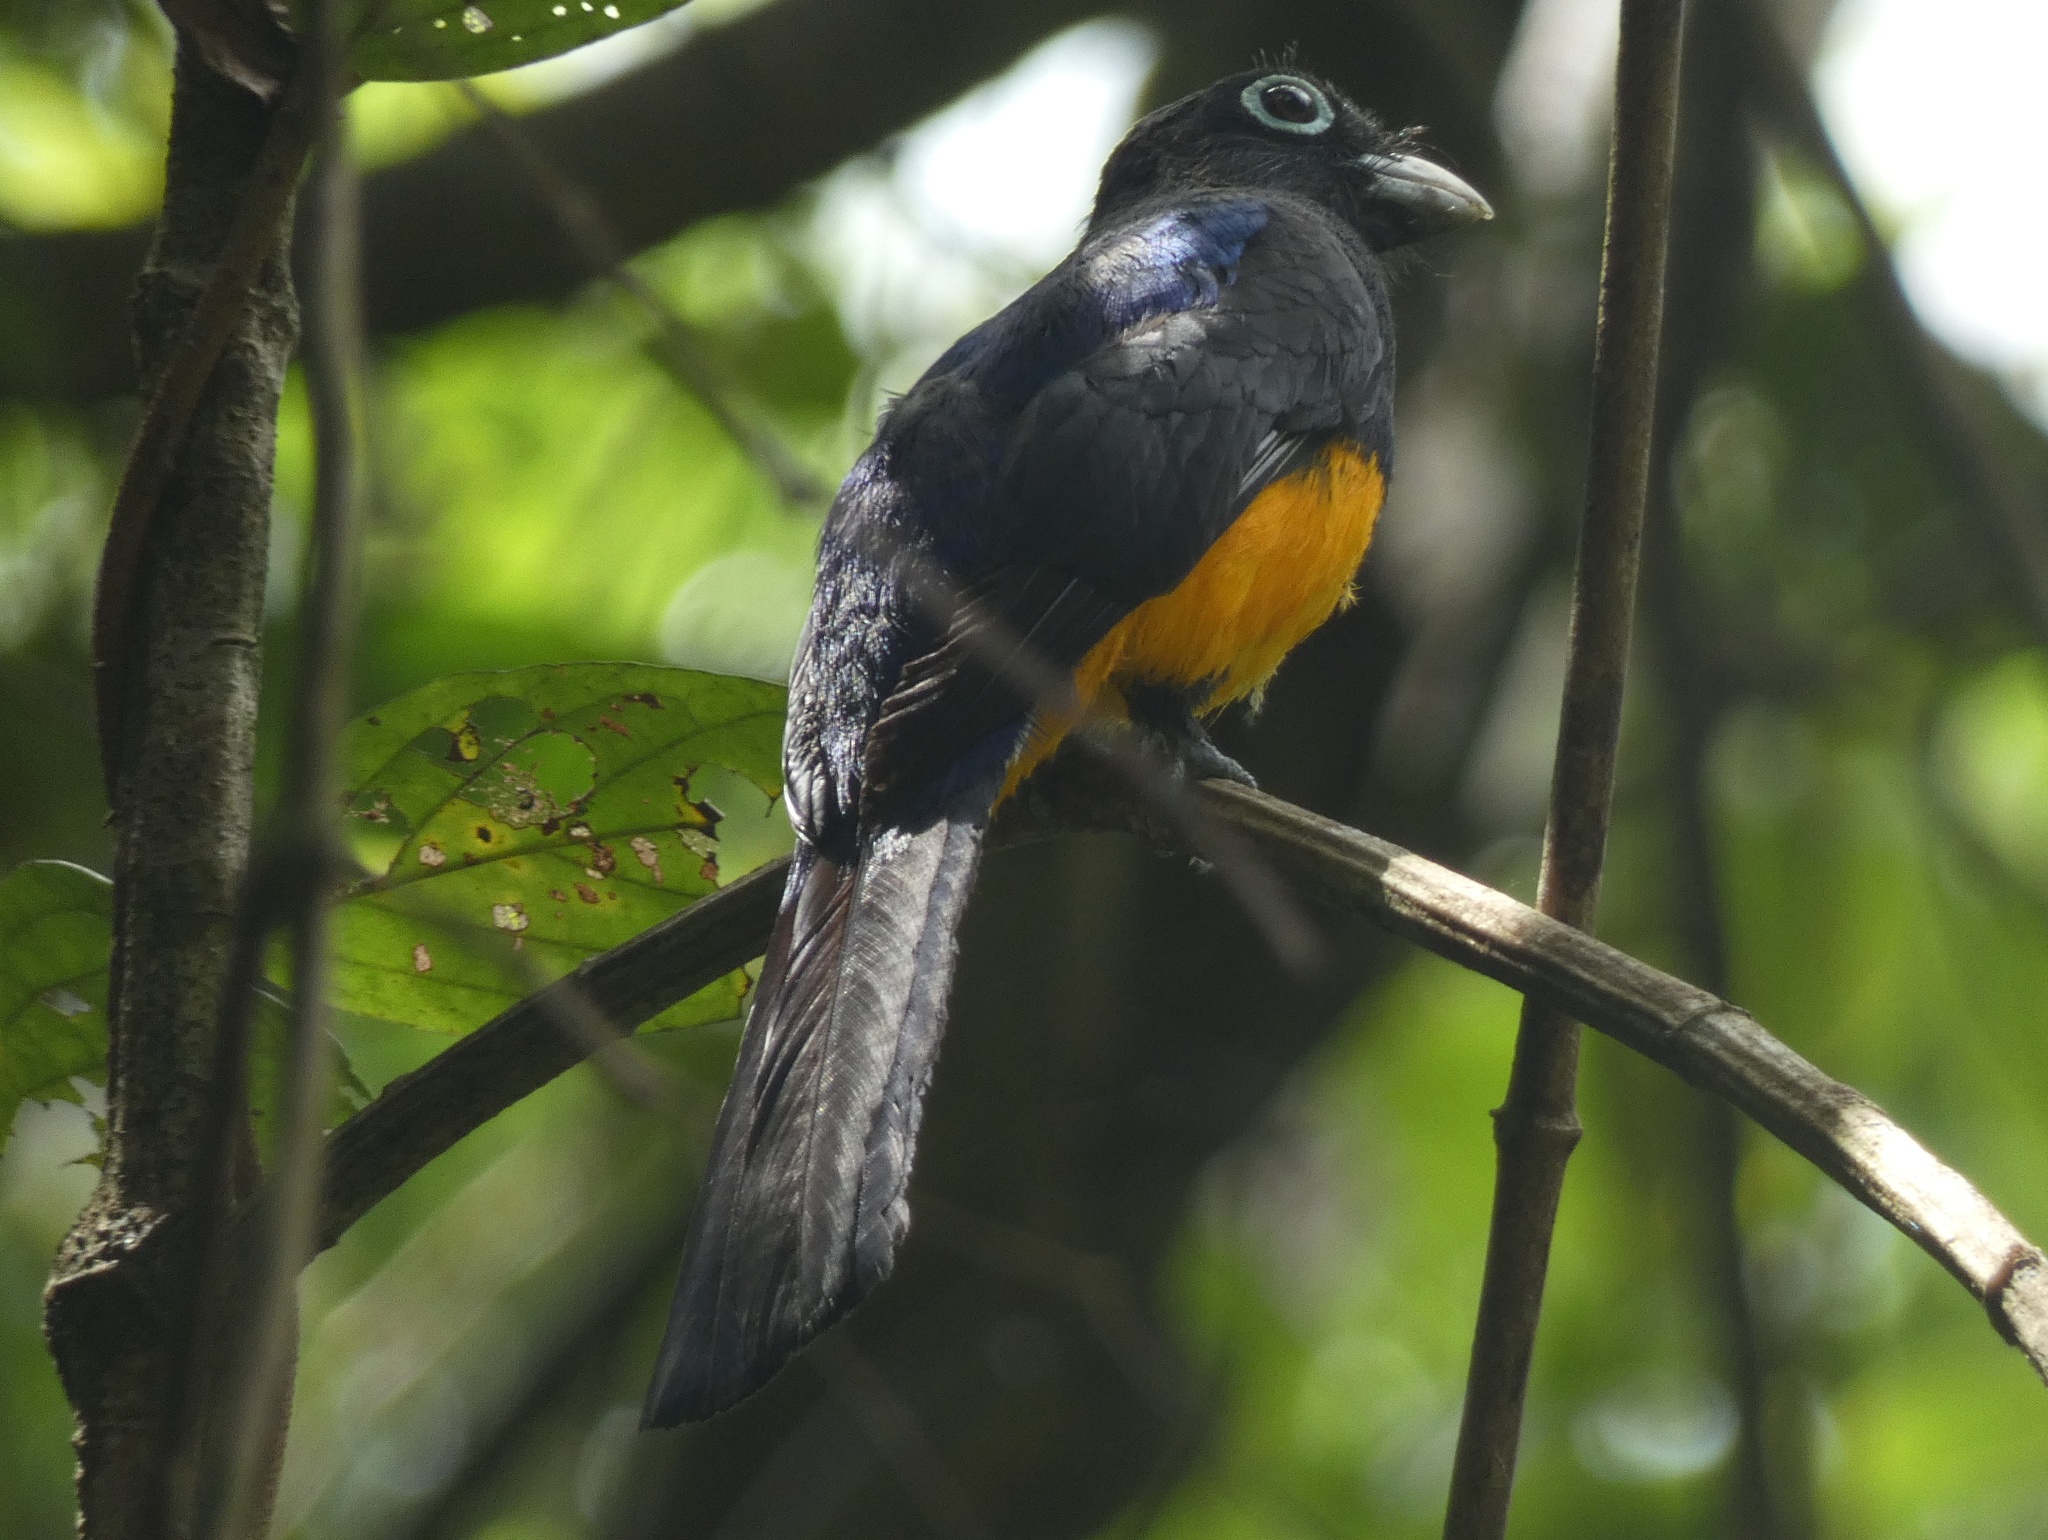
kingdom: Animalia
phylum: Chordata
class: Aves
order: Trogoniformes
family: Trogonidae
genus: Trogon
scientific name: Trogon chionurus
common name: White-tailed trogon
